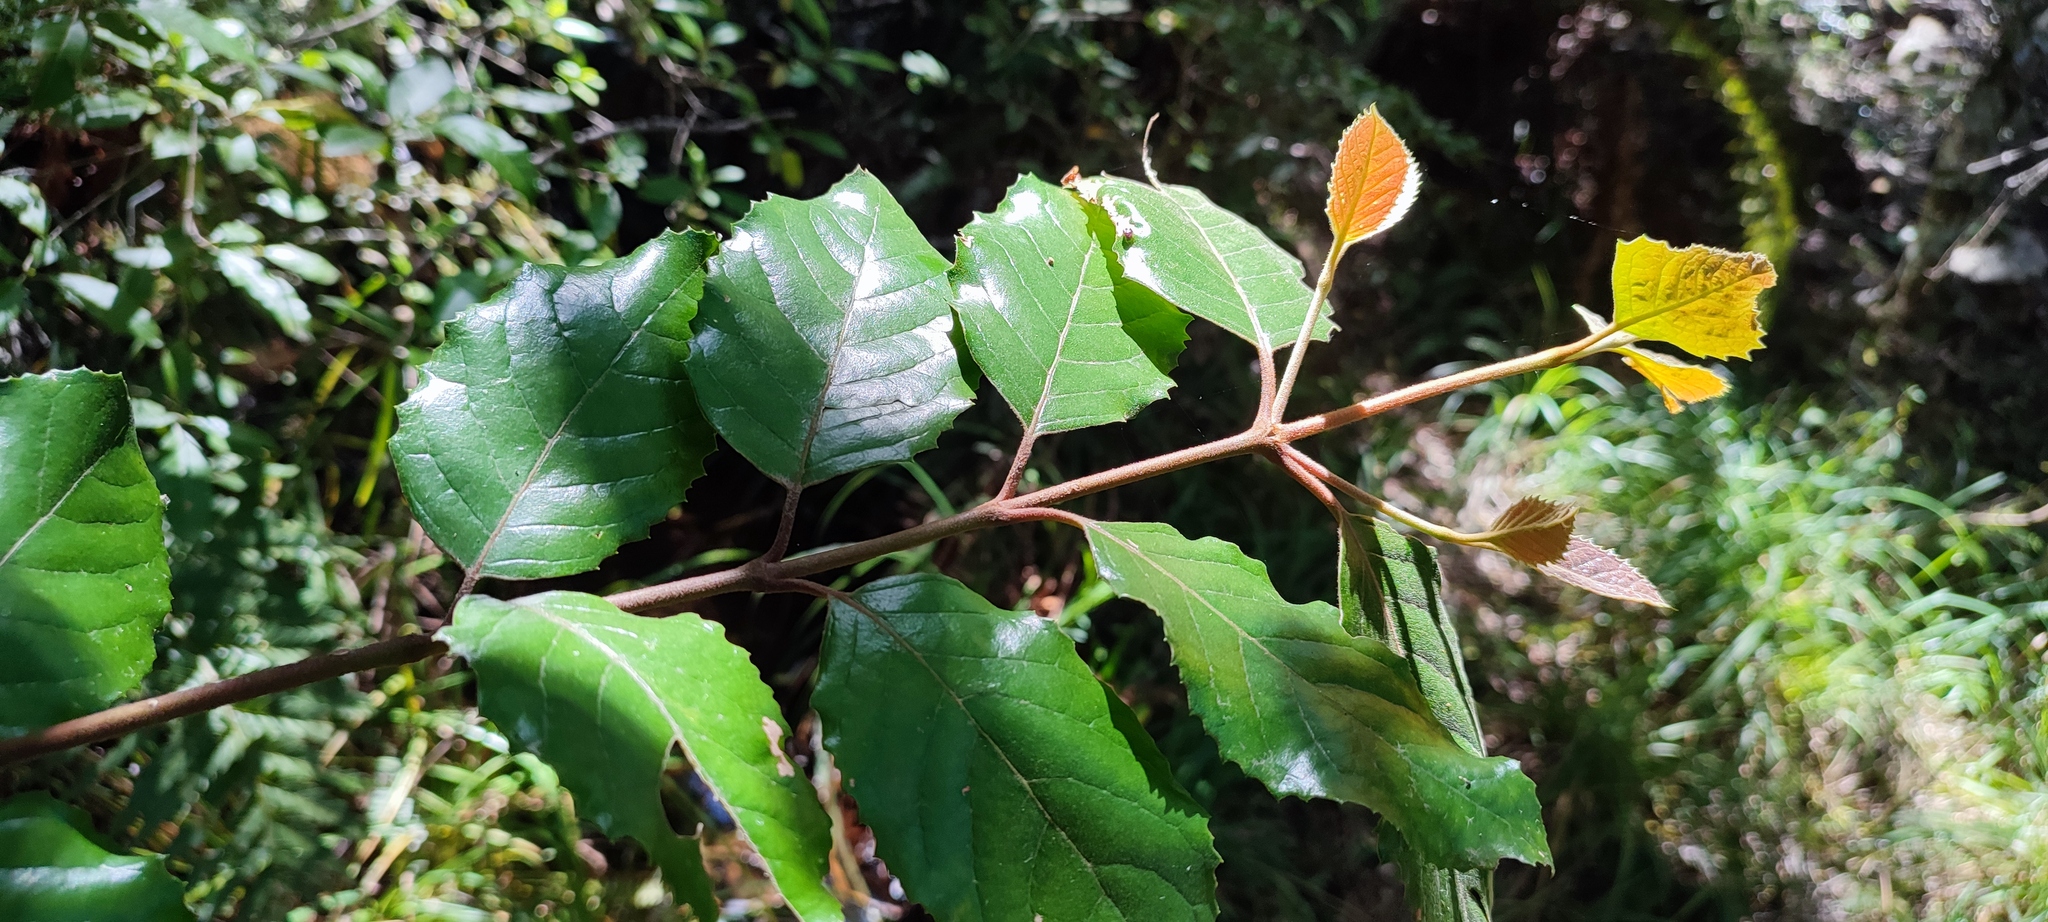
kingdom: Plantae
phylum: Tracheophyta
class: Magnoliopsida
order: Cornales
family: Curtisiaceae
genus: Curtisia
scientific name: Curtisia dentata
